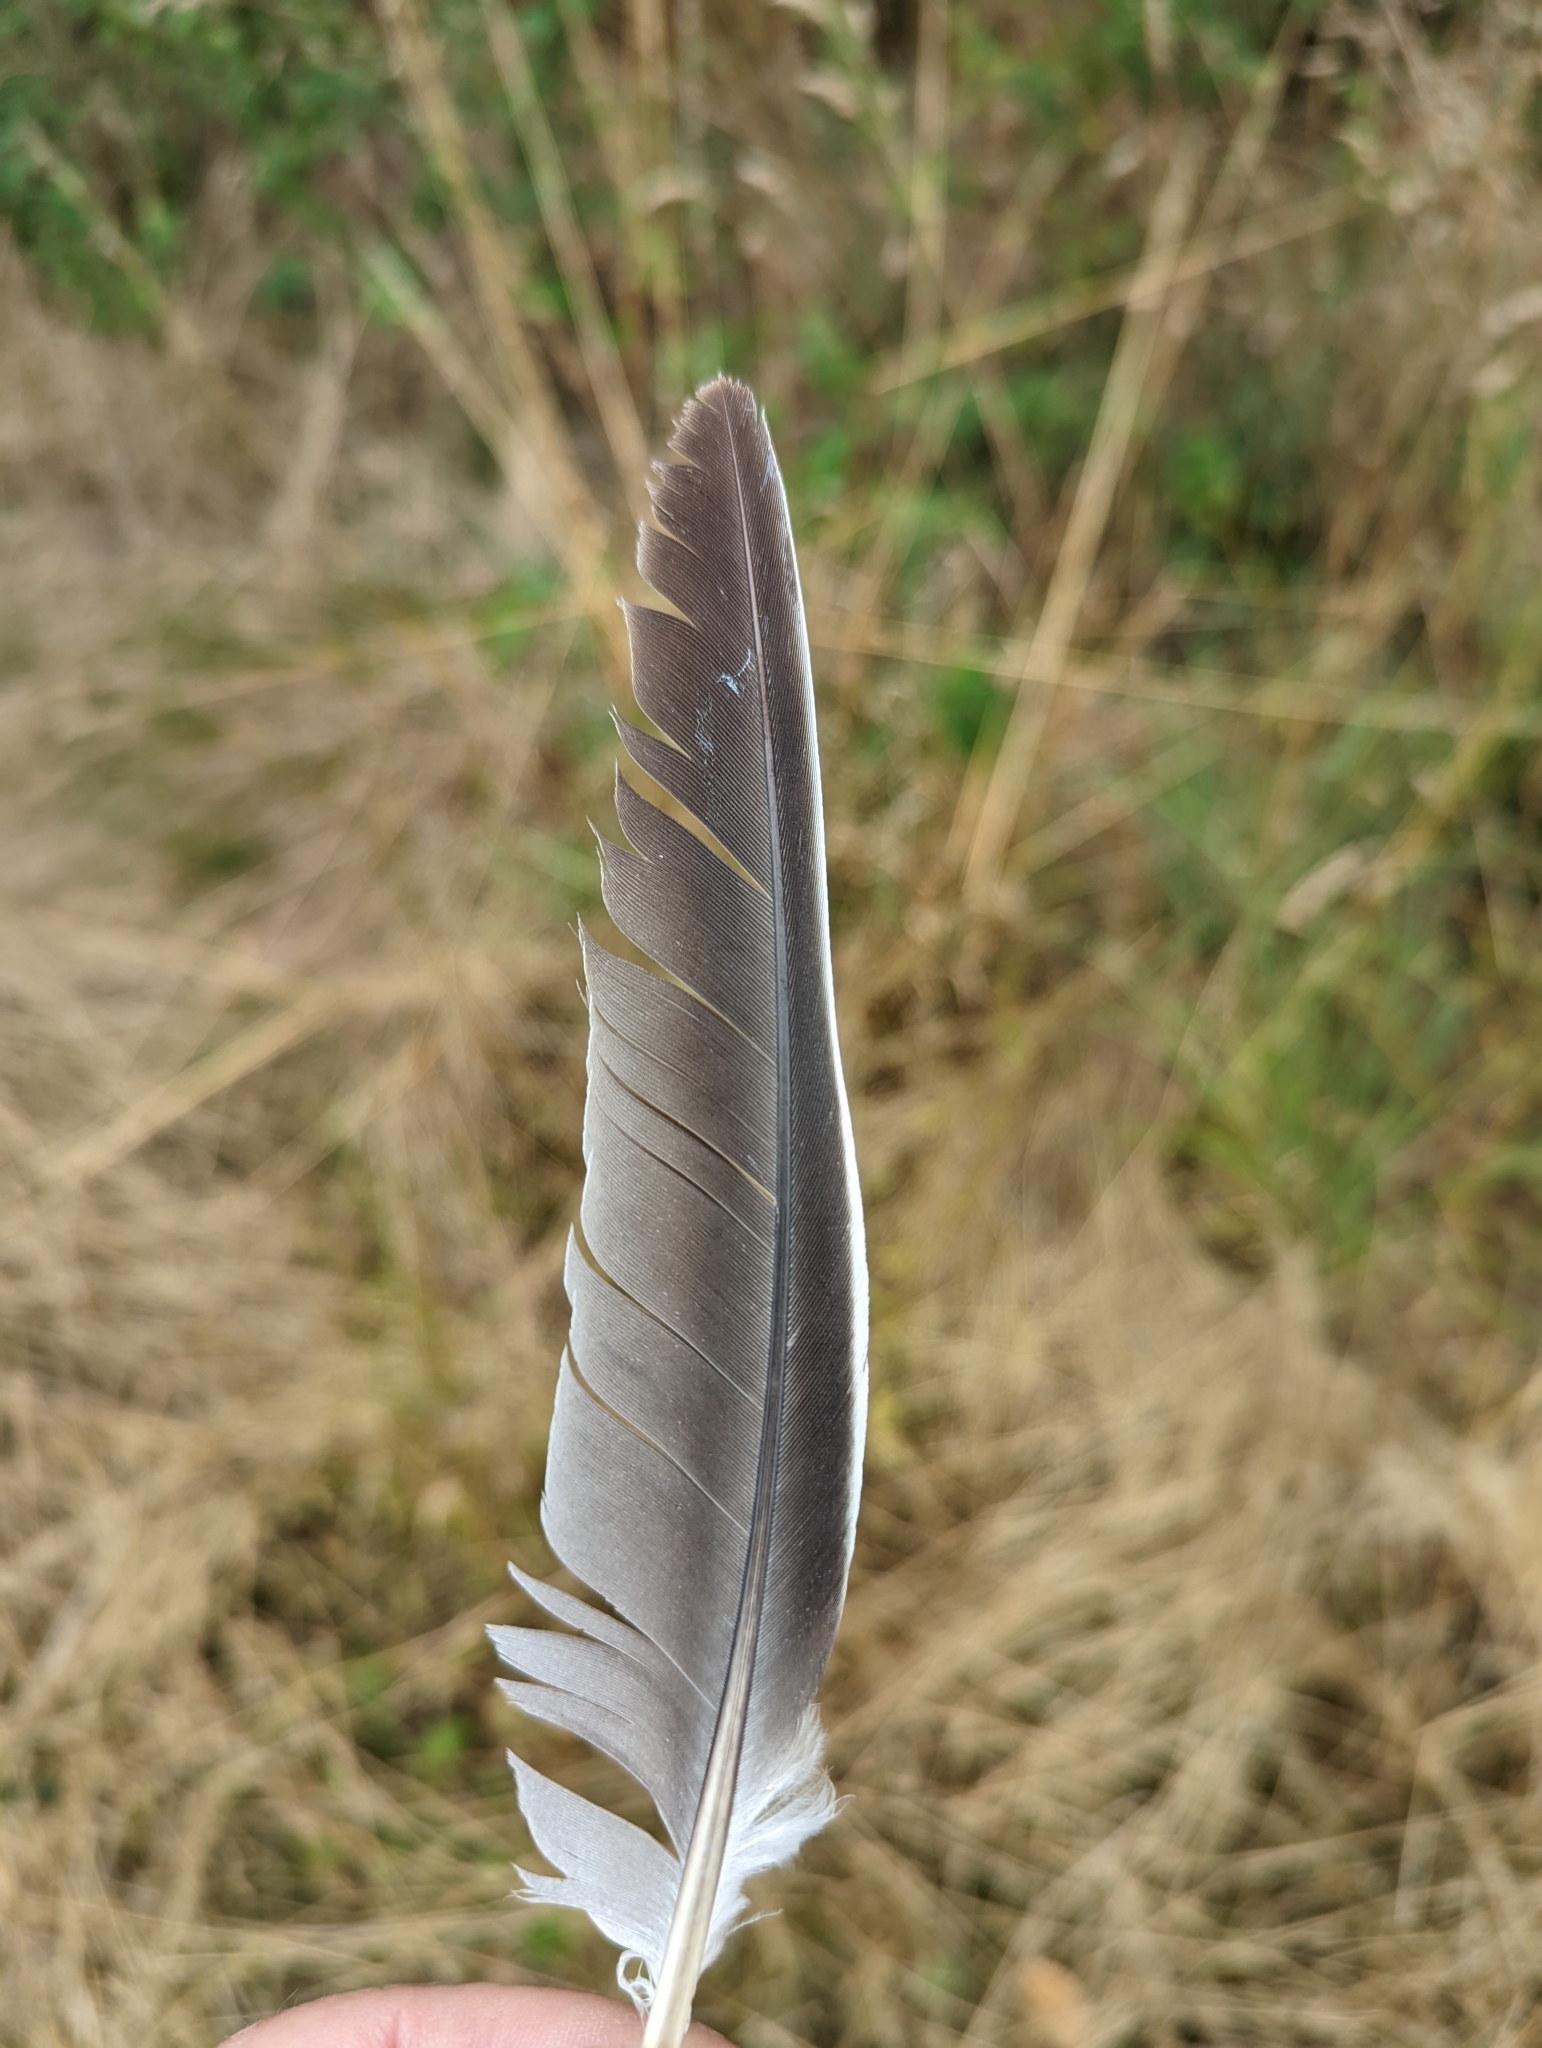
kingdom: Animalia
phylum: Chordata
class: Aves
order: Columbiformes
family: Columbidae
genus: Columba
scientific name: Columba palumbus
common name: Common wood pigeon
